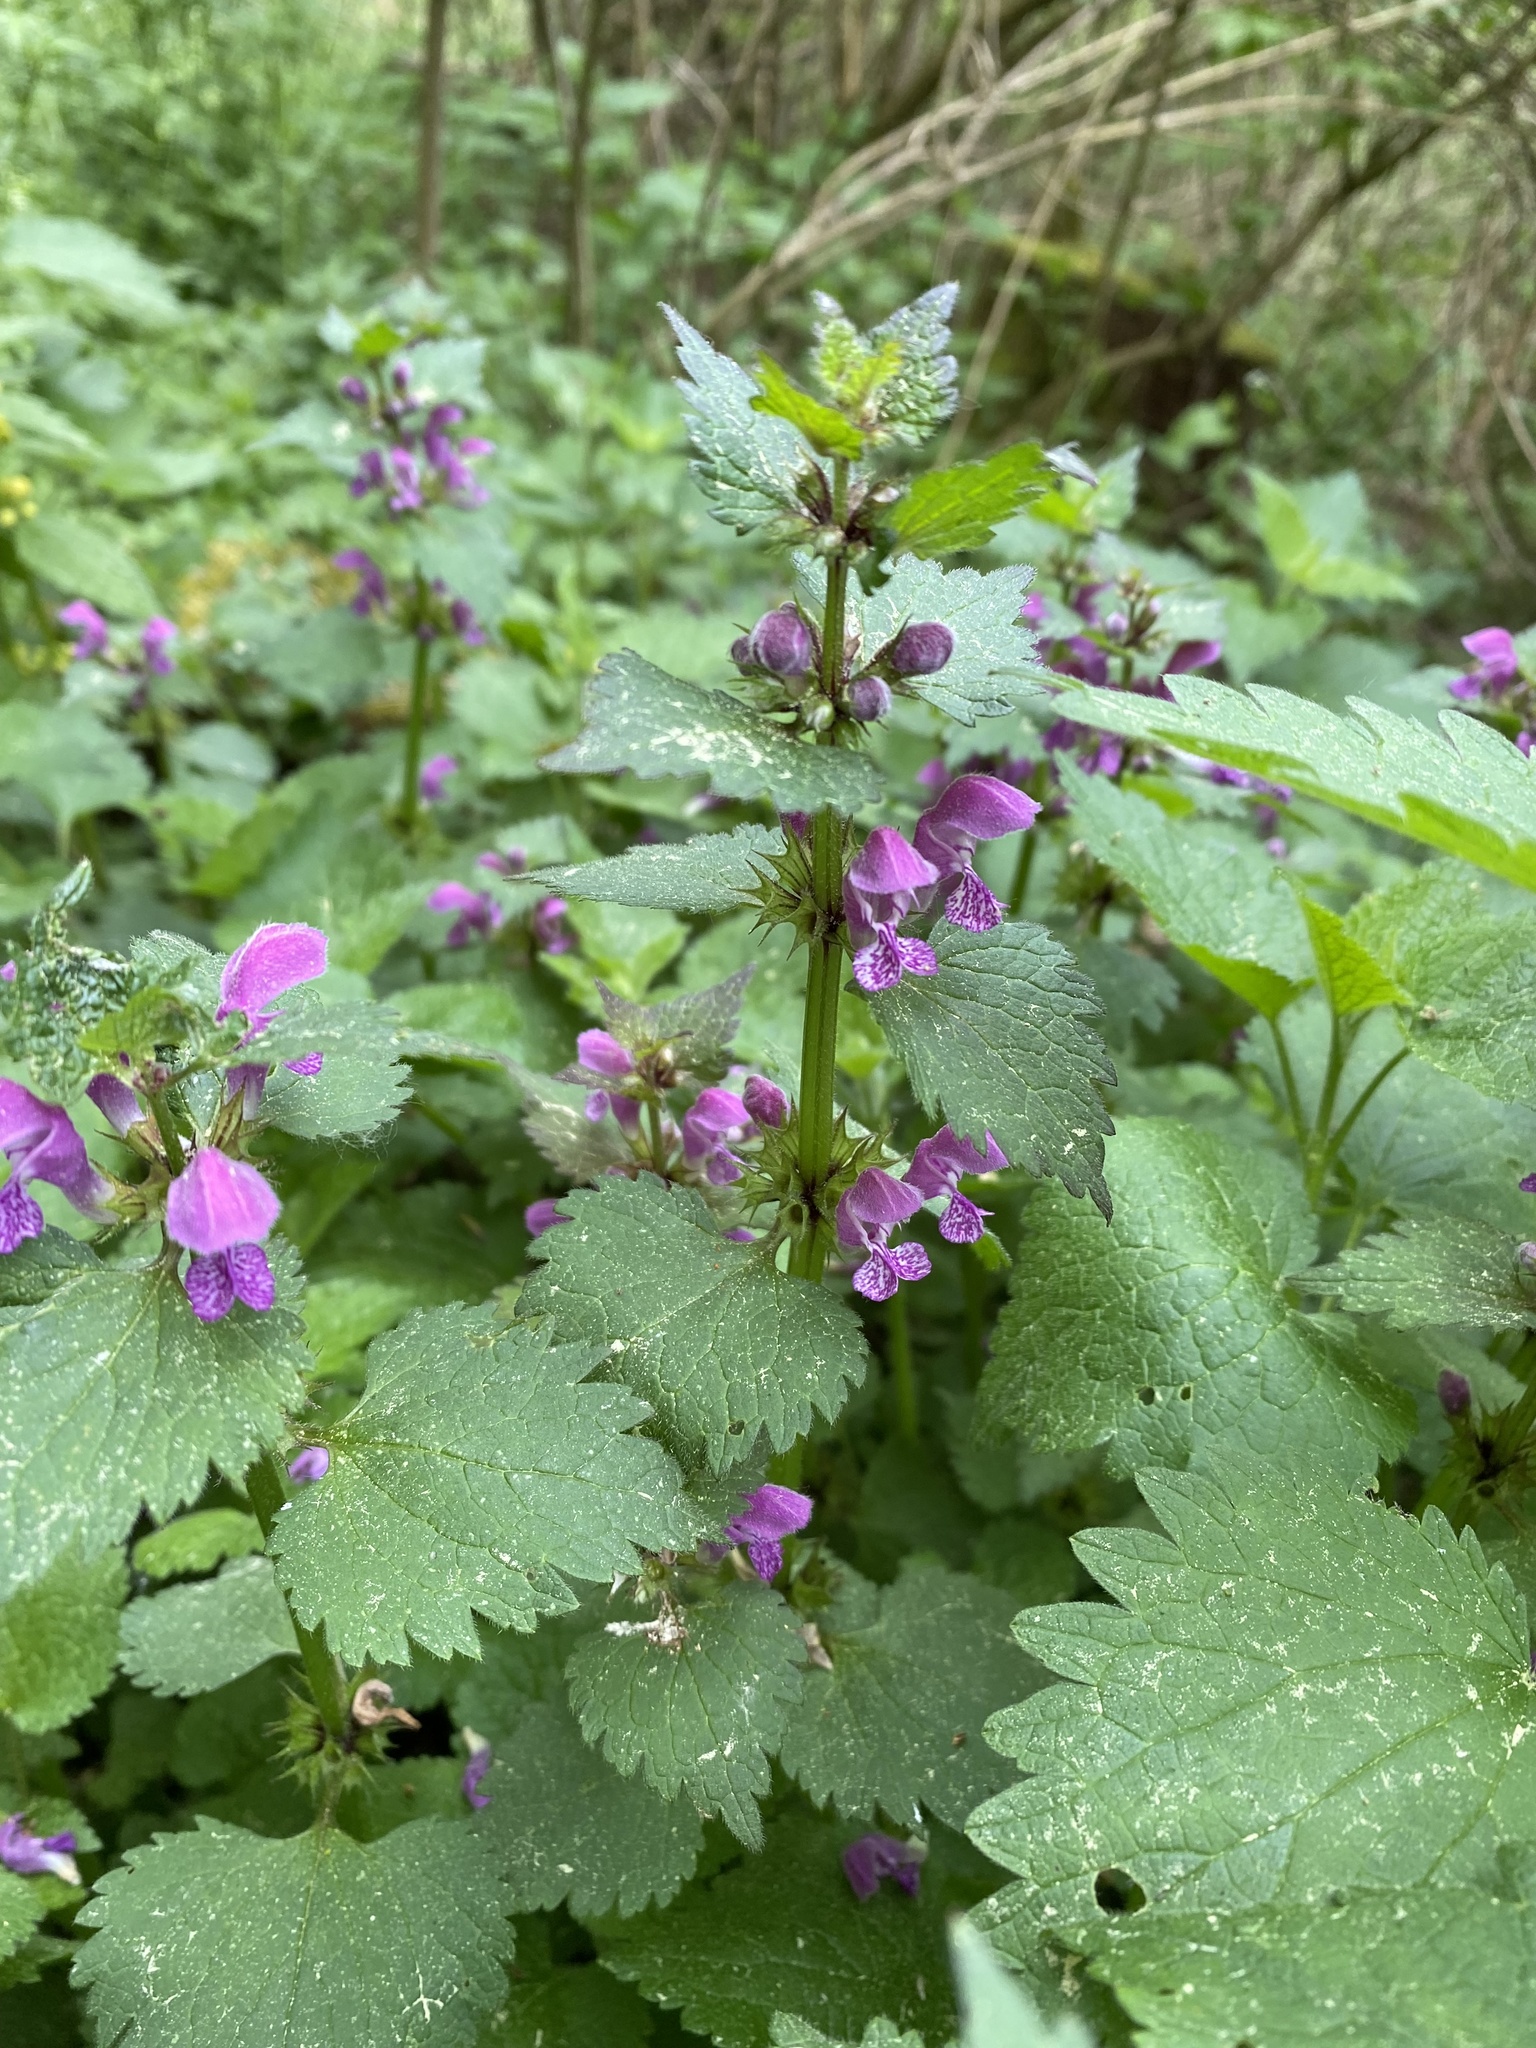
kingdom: Plantae
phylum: Tracheophyta
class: Magnoliopsida
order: Lamiales
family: Lamiaceae
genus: Lamium
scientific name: Lamium maculatum
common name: Spotted dead-nettle
